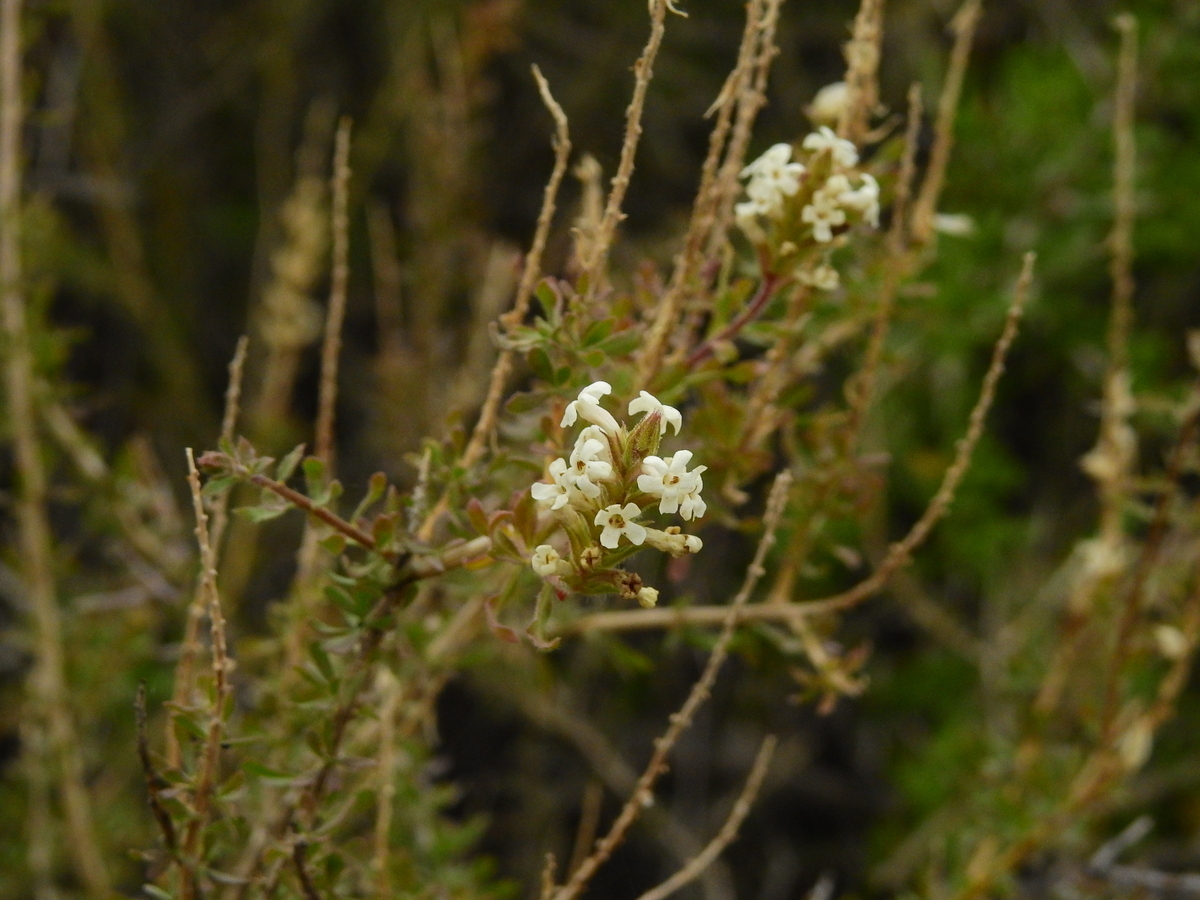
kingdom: Plantae
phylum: Tracheophyta
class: Magnoliopsida
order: Lamiales
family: Verbenaceae
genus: Mulguraea
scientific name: Mulguraea aspera
